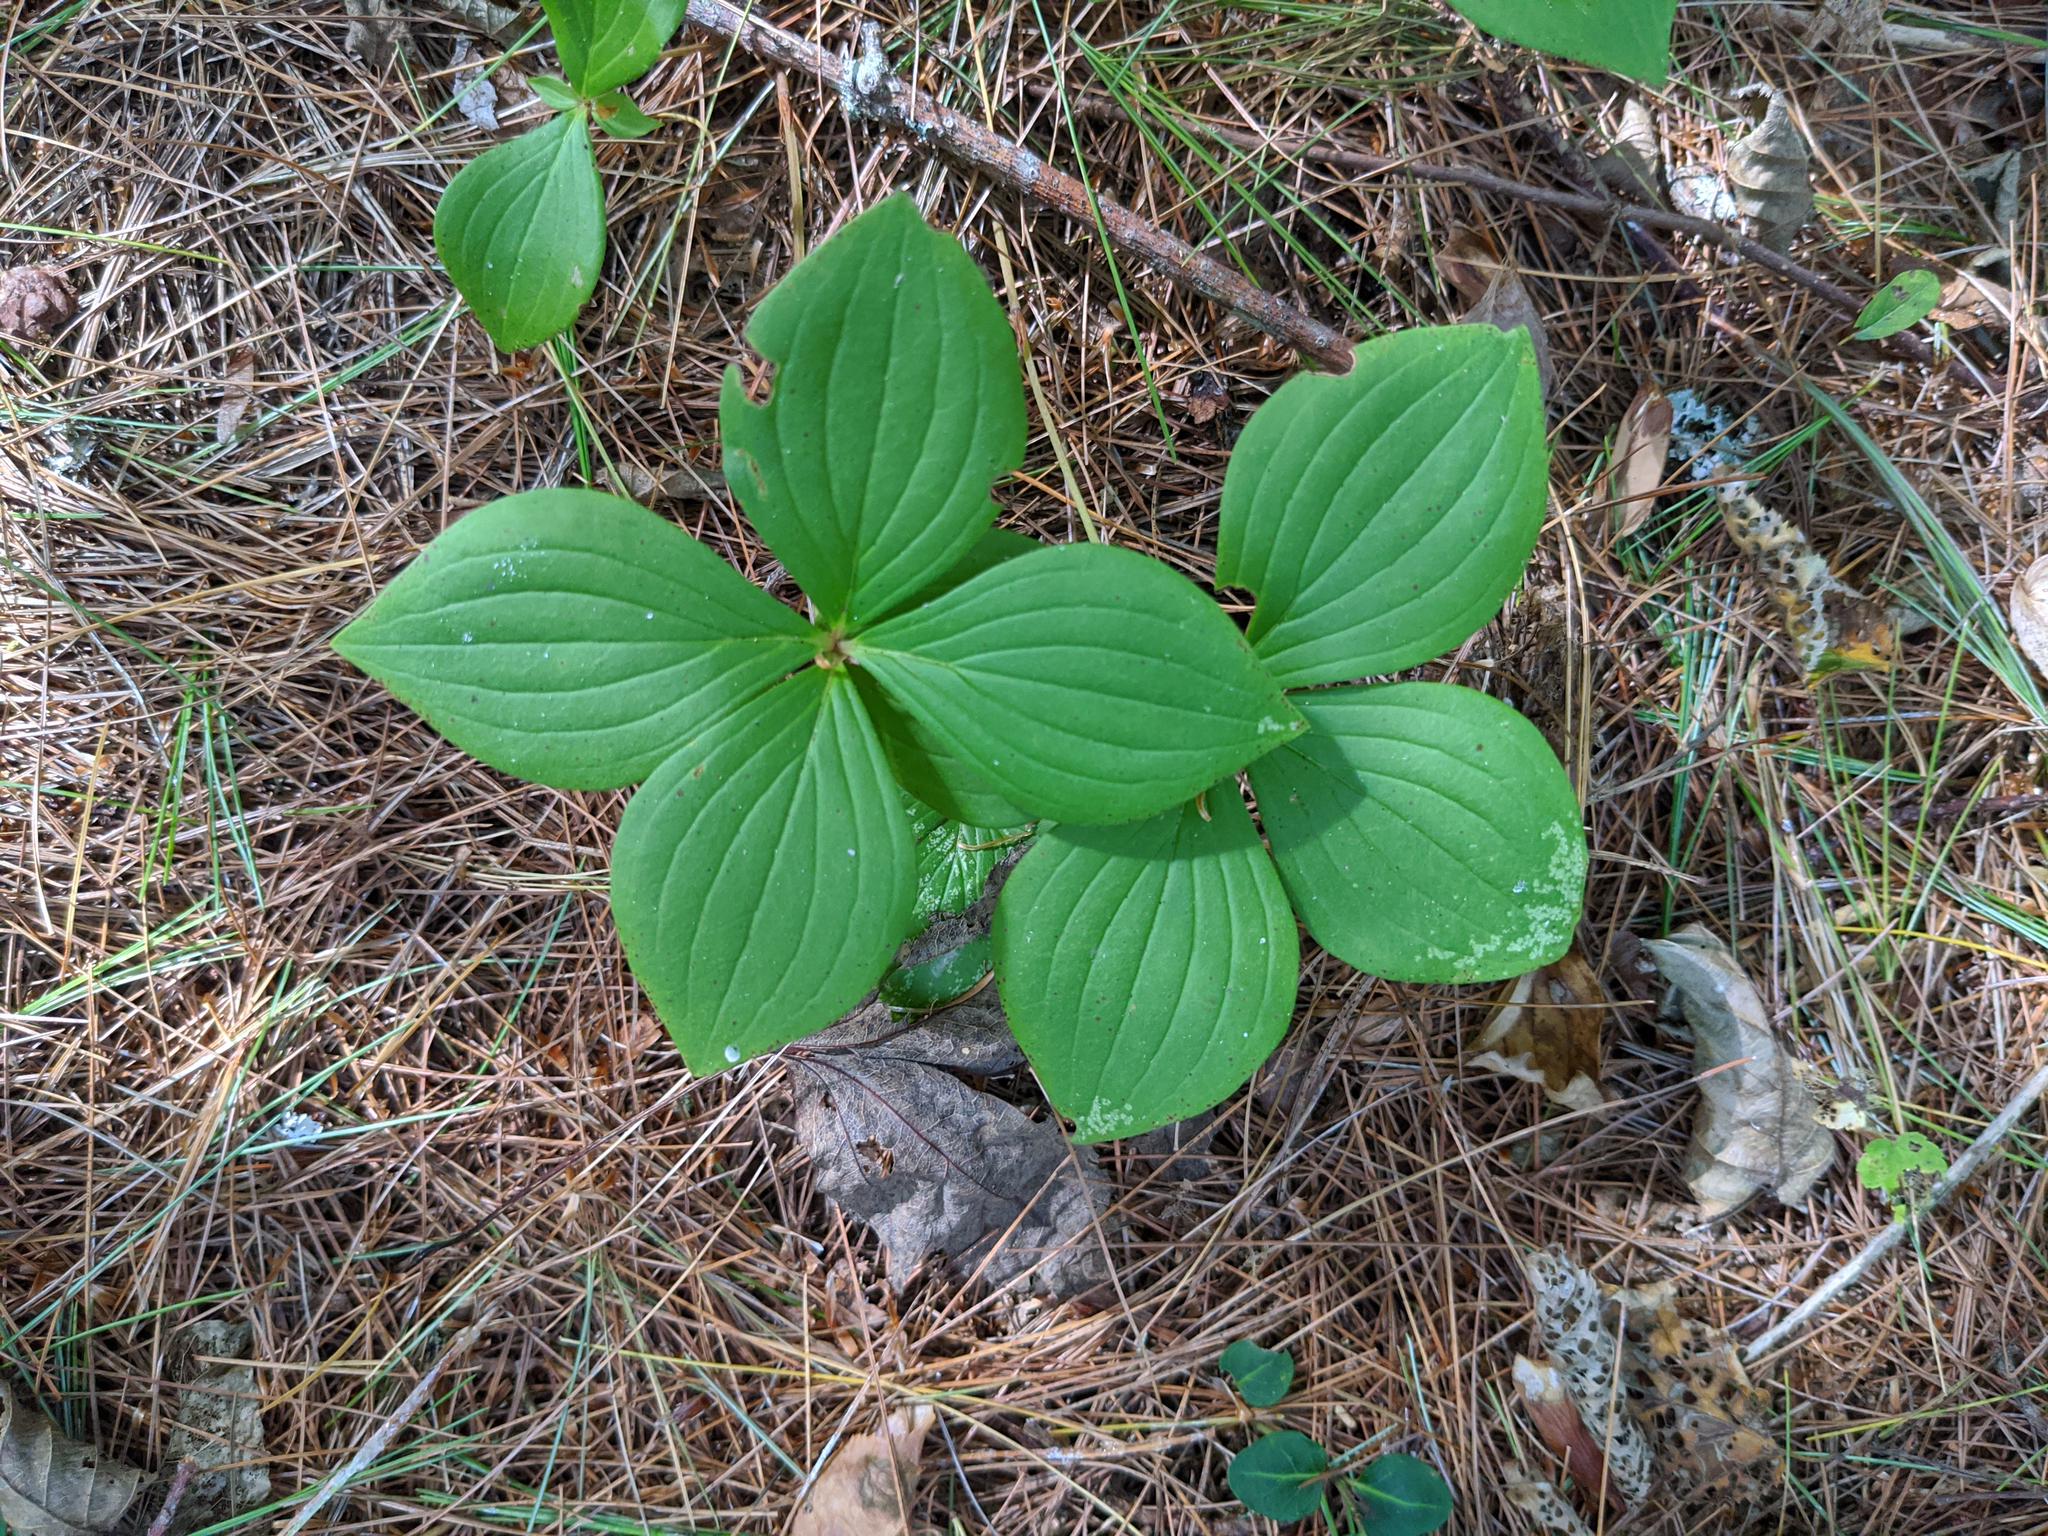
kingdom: Plantae
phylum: Tracheophyta
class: Magnoliopsida
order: Cornales
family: Cornaceae
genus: Cornus
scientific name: Cornus canadensis
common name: Creeping dogwood
